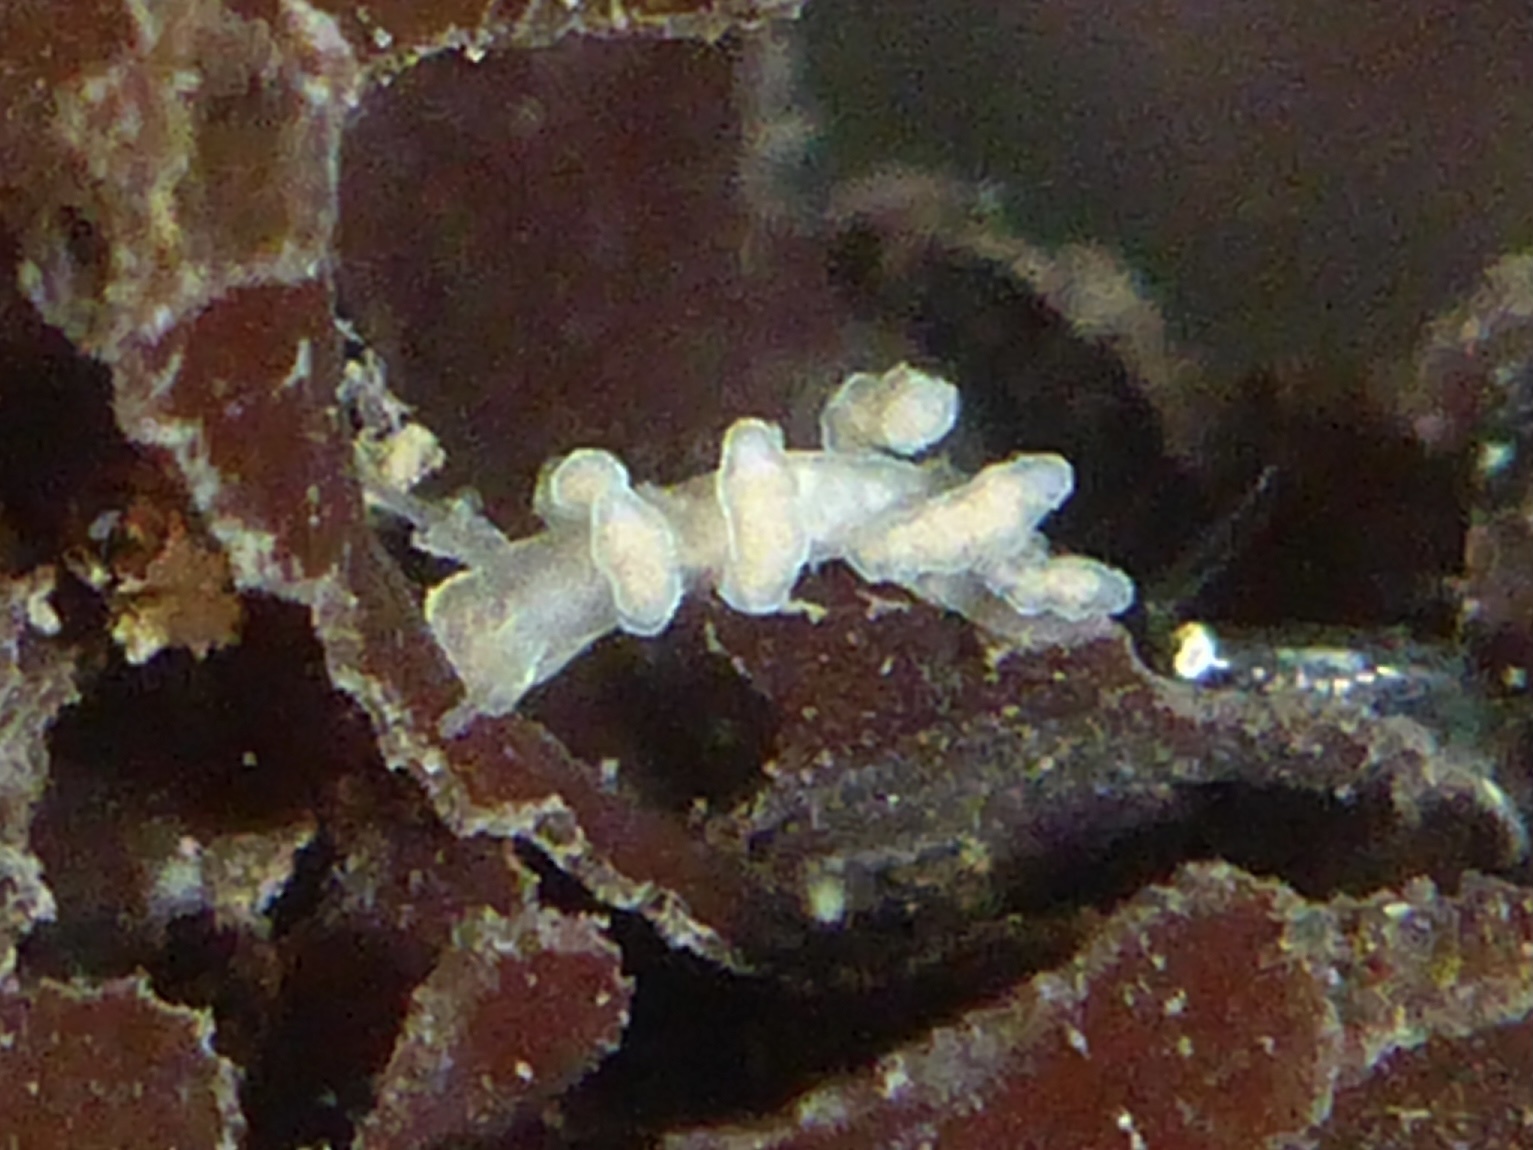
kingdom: Animalia
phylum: Mollusca
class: Gastropoda
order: Nudibranchia
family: Dotidae
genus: Doto
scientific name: Doto amyra
